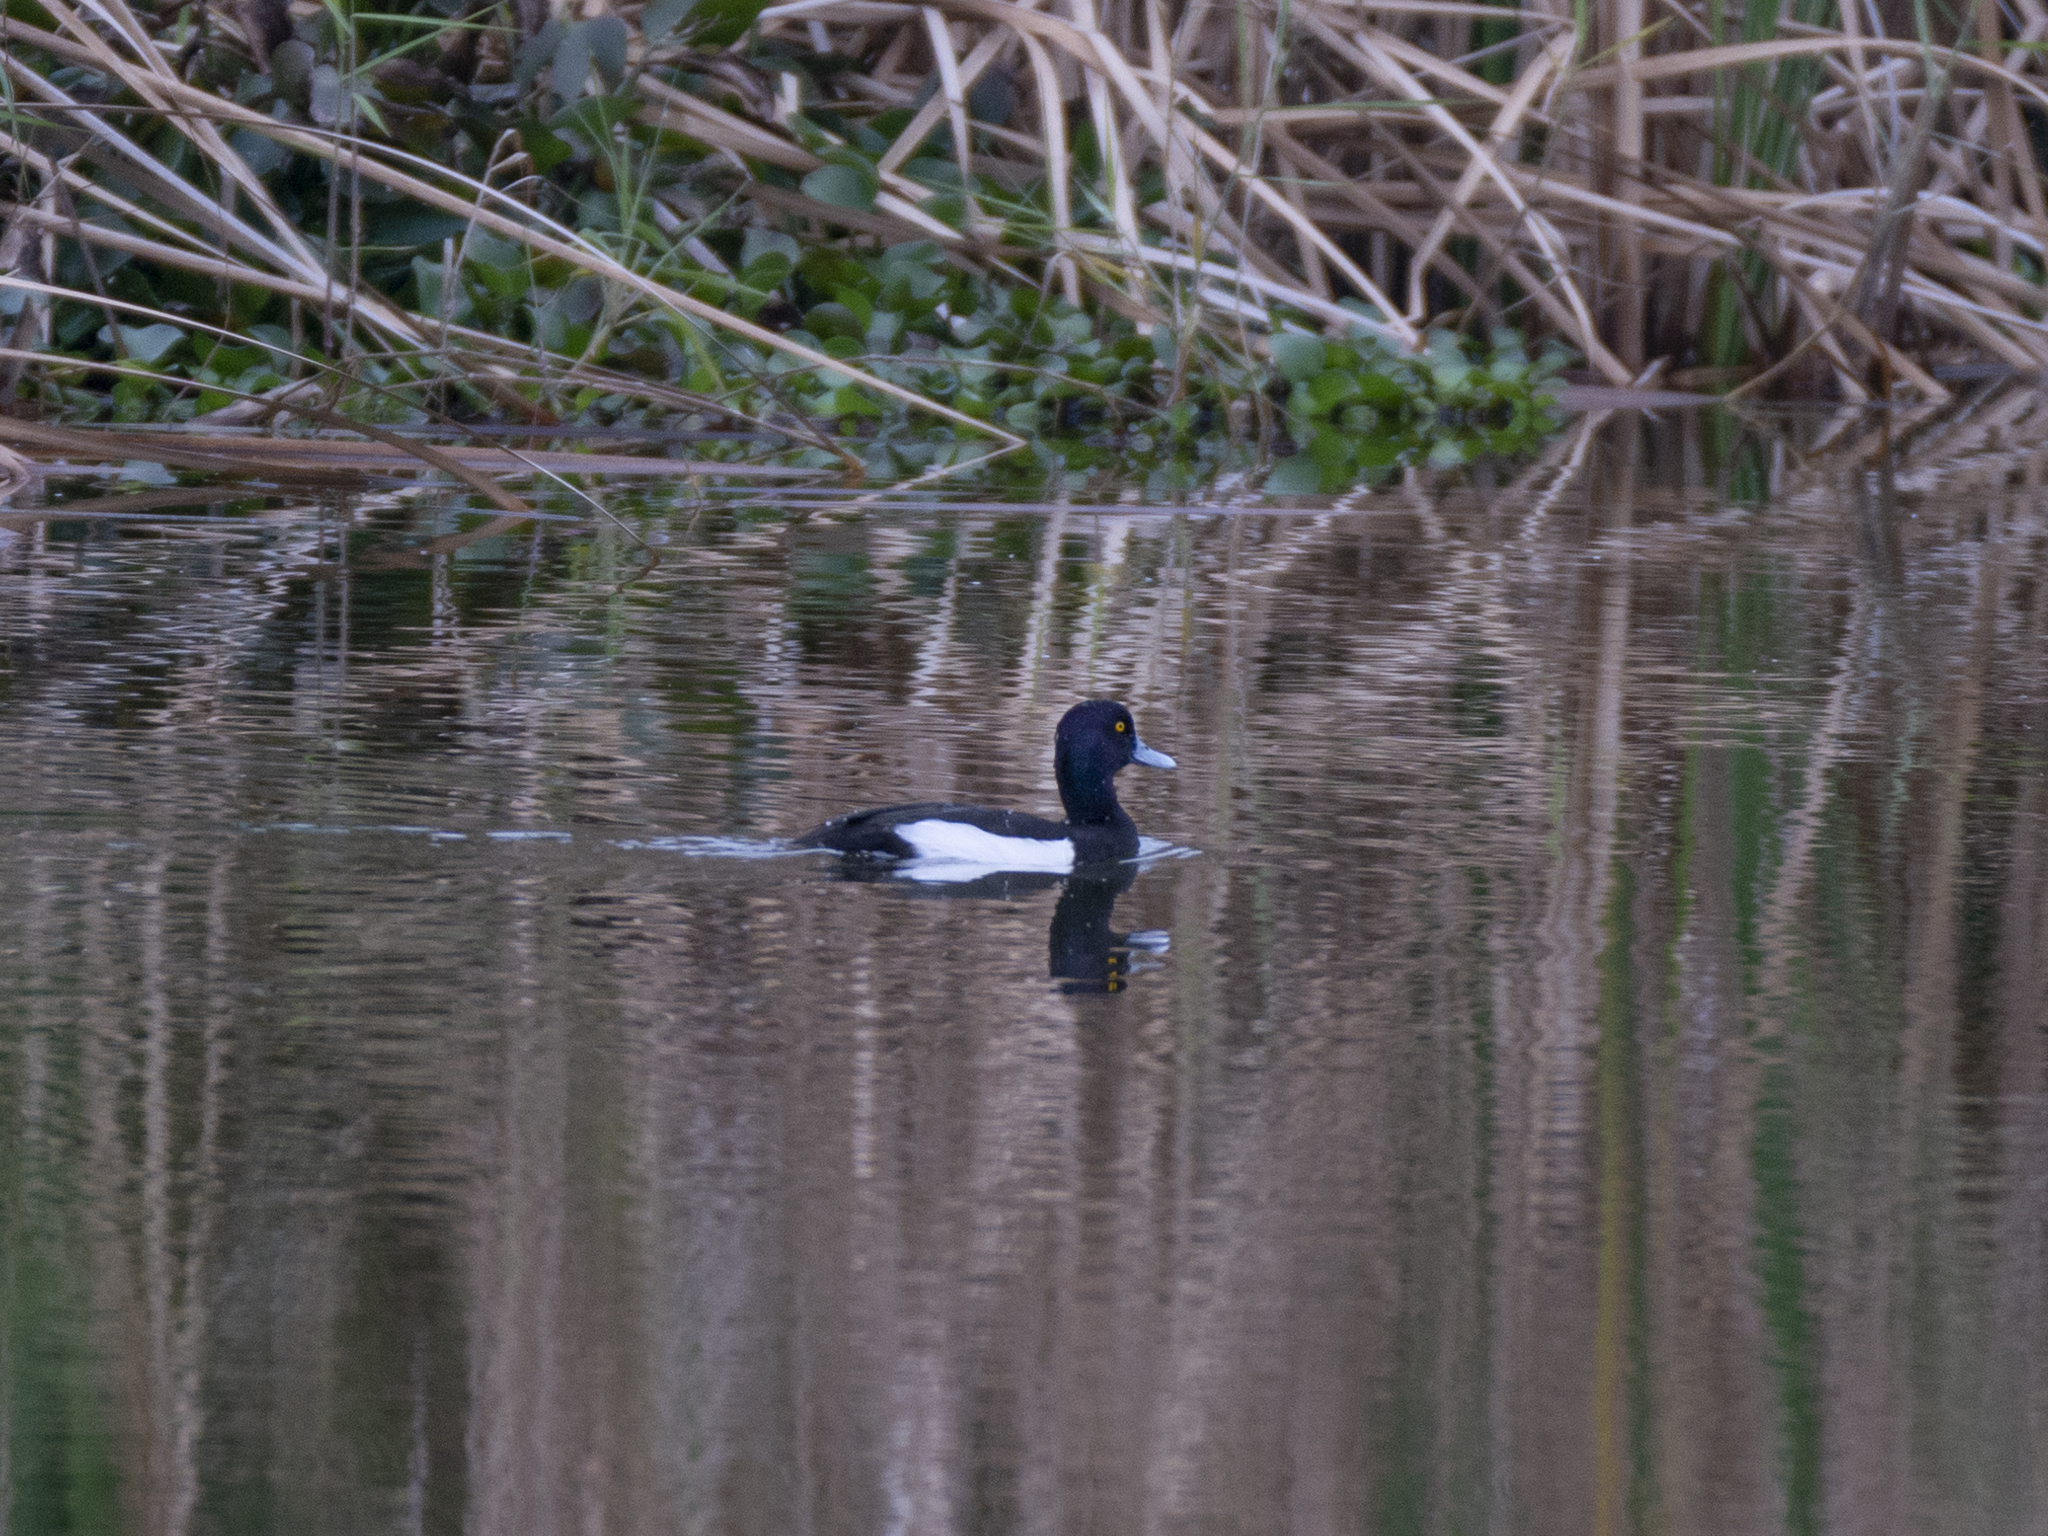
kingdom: Animalia
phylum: Chordata
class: Aves
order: Anseriformes
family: Anatidae
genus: Aythya
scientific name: Aythya fuligula
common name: Tufted duck
